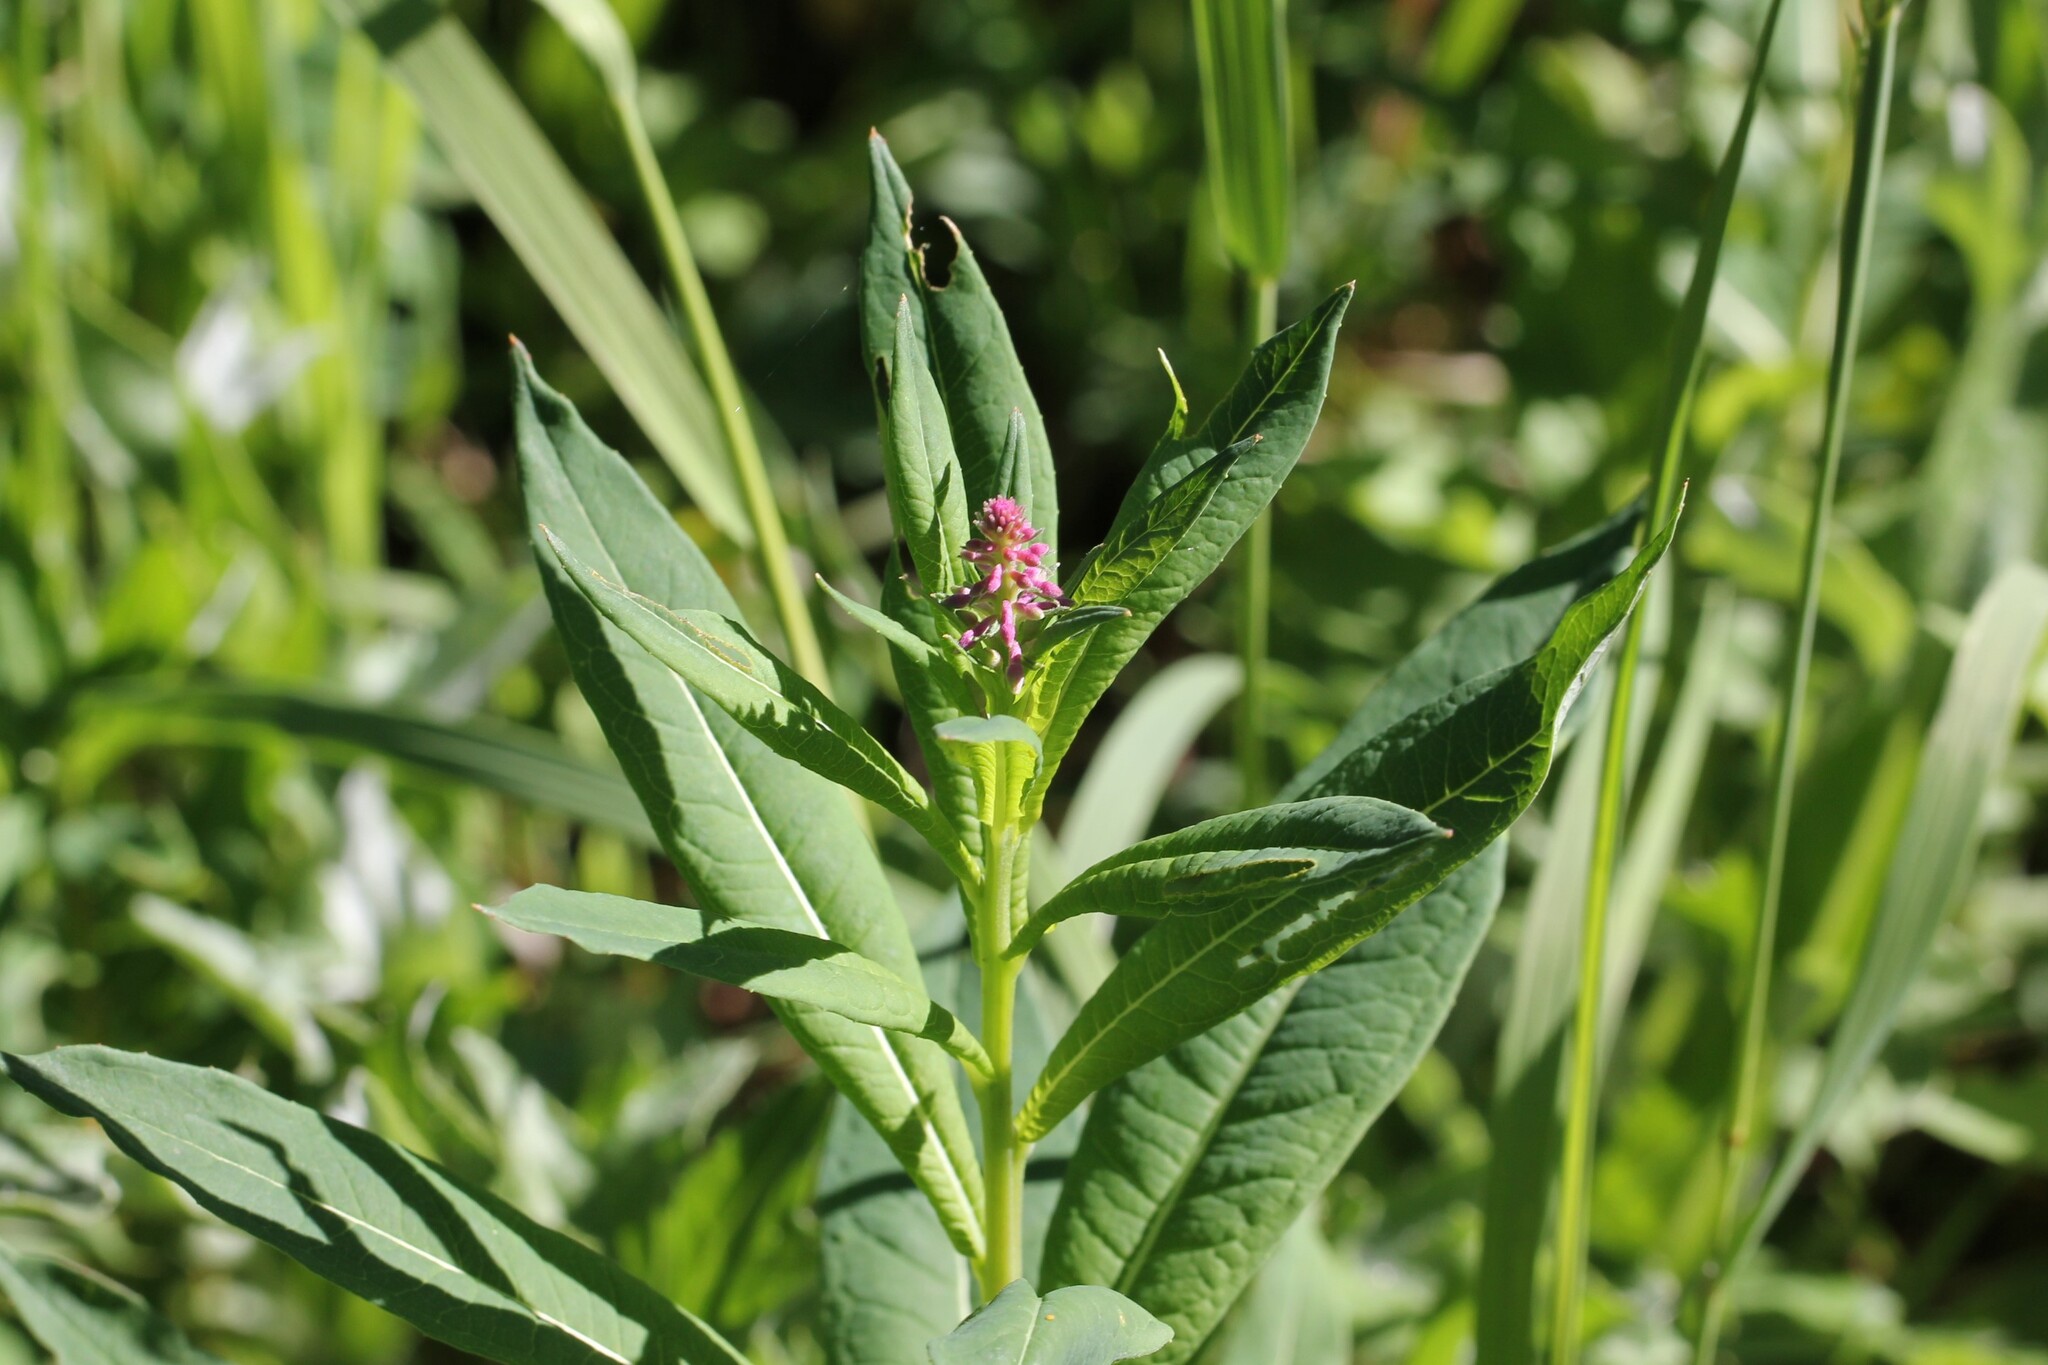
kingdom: Plantae
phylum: Tracheophyta
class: Magnoliopsida
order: Myrtales
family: Onagraceae
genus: Chamaenerion
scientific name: Chamaenerion angustifolium
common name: Fireweed
